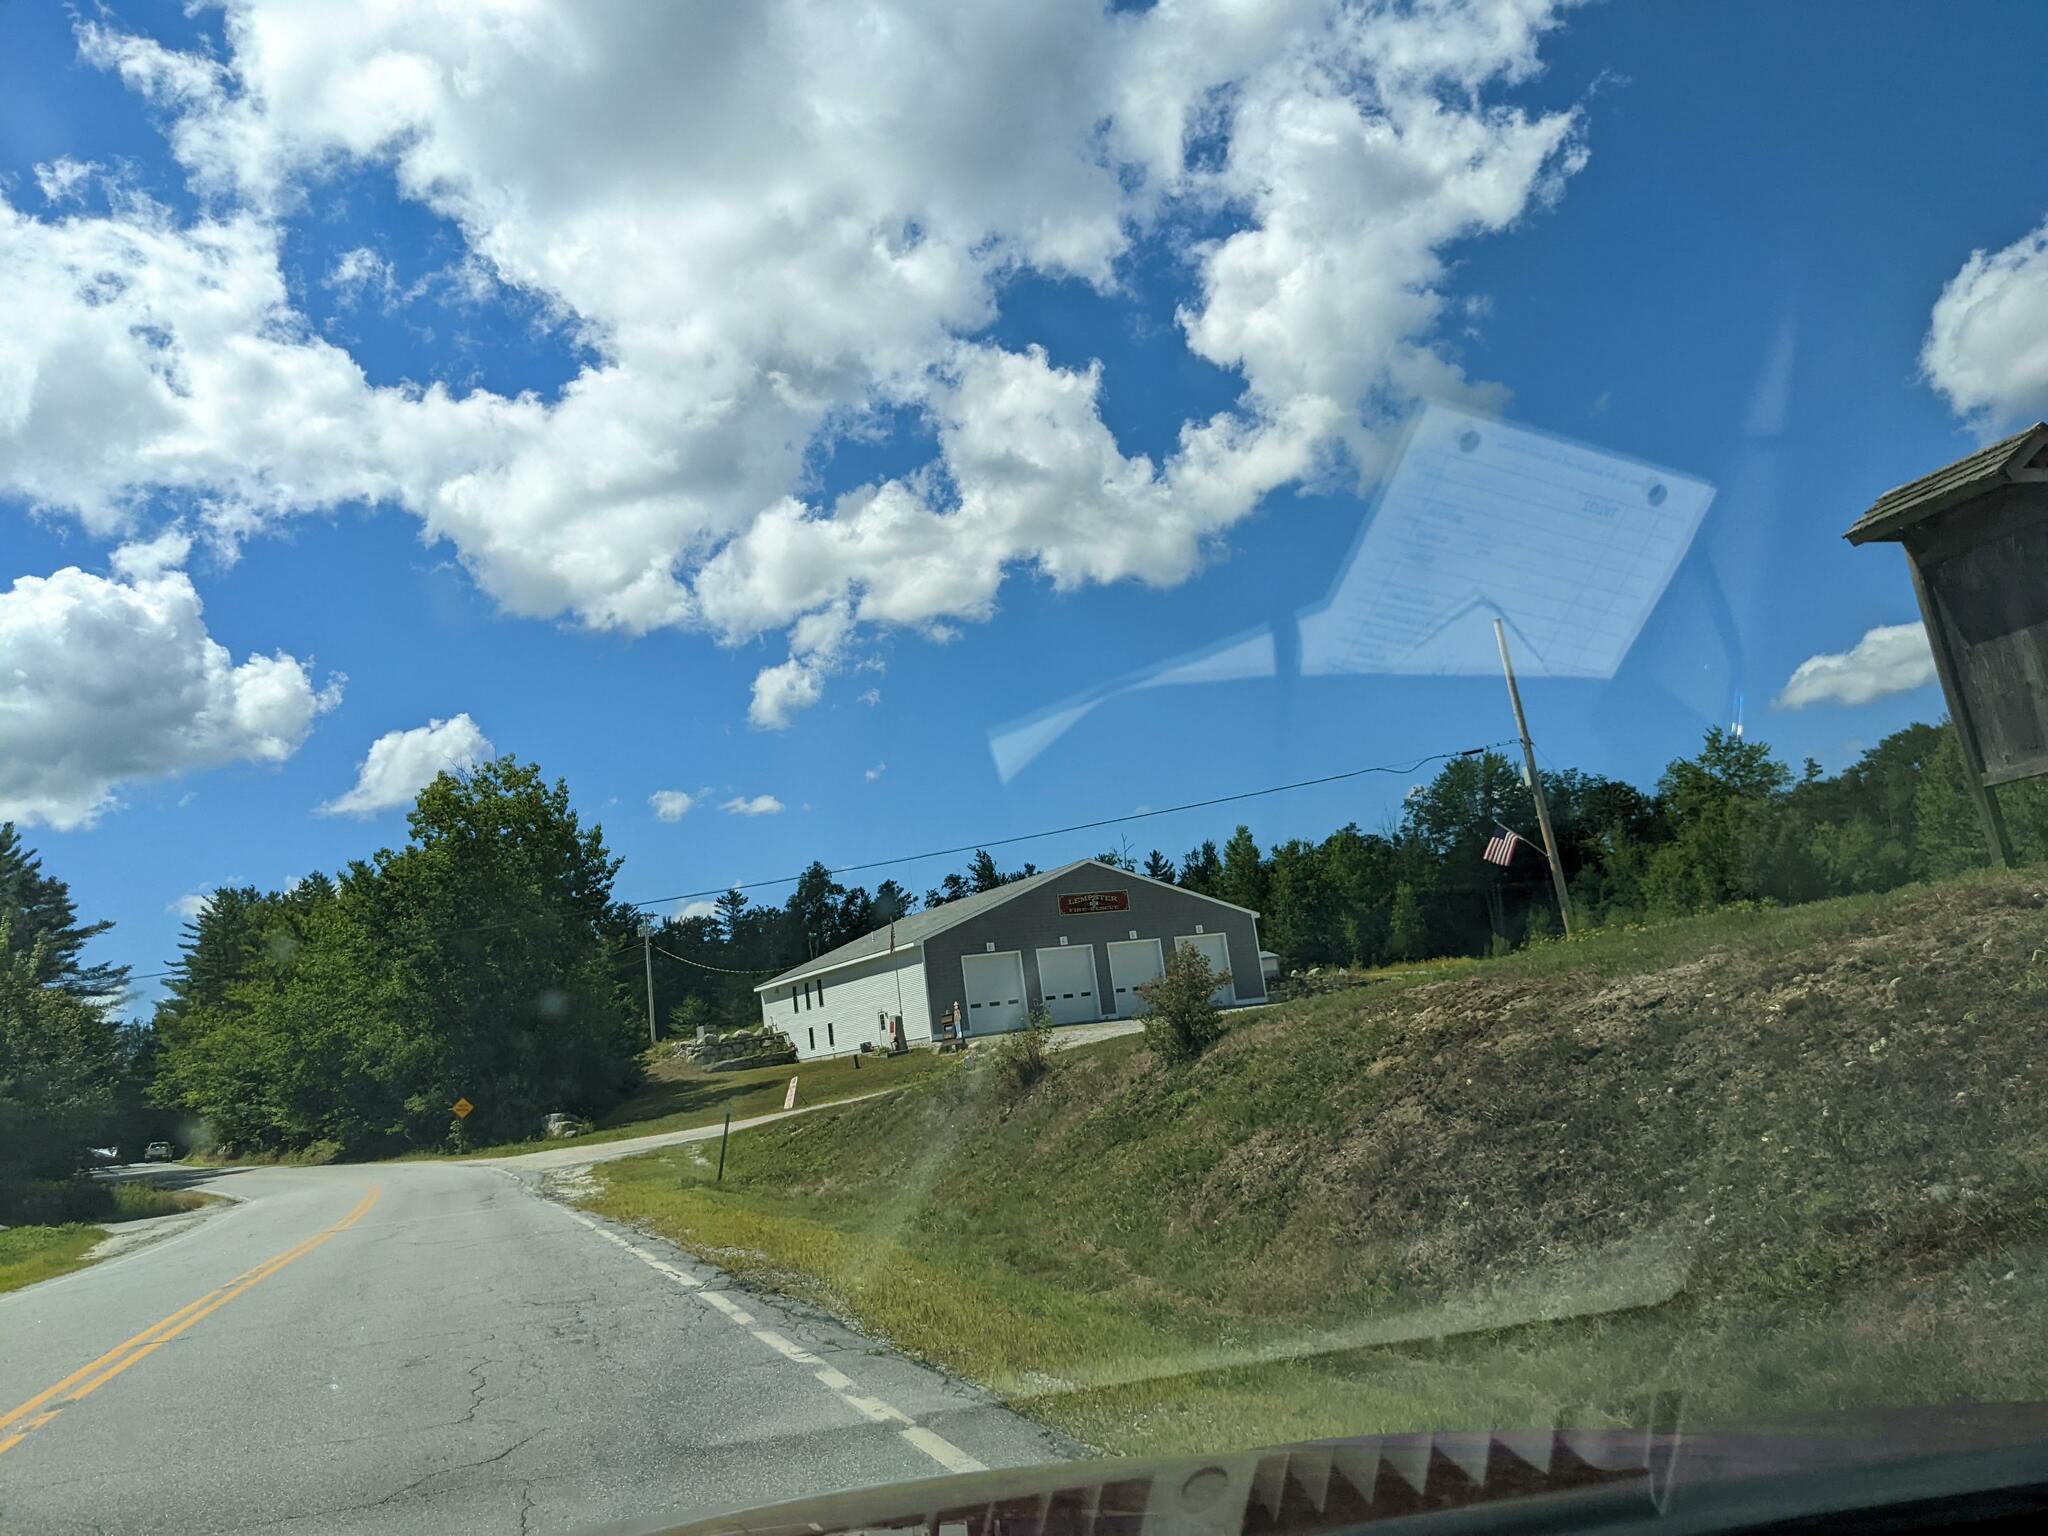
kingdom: Plantae
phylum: Tracheophyta
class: Pinopsida
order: Pinales
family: Pinaceae
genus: Pinus
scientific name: Pinus strobus
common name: Weymouth pine
